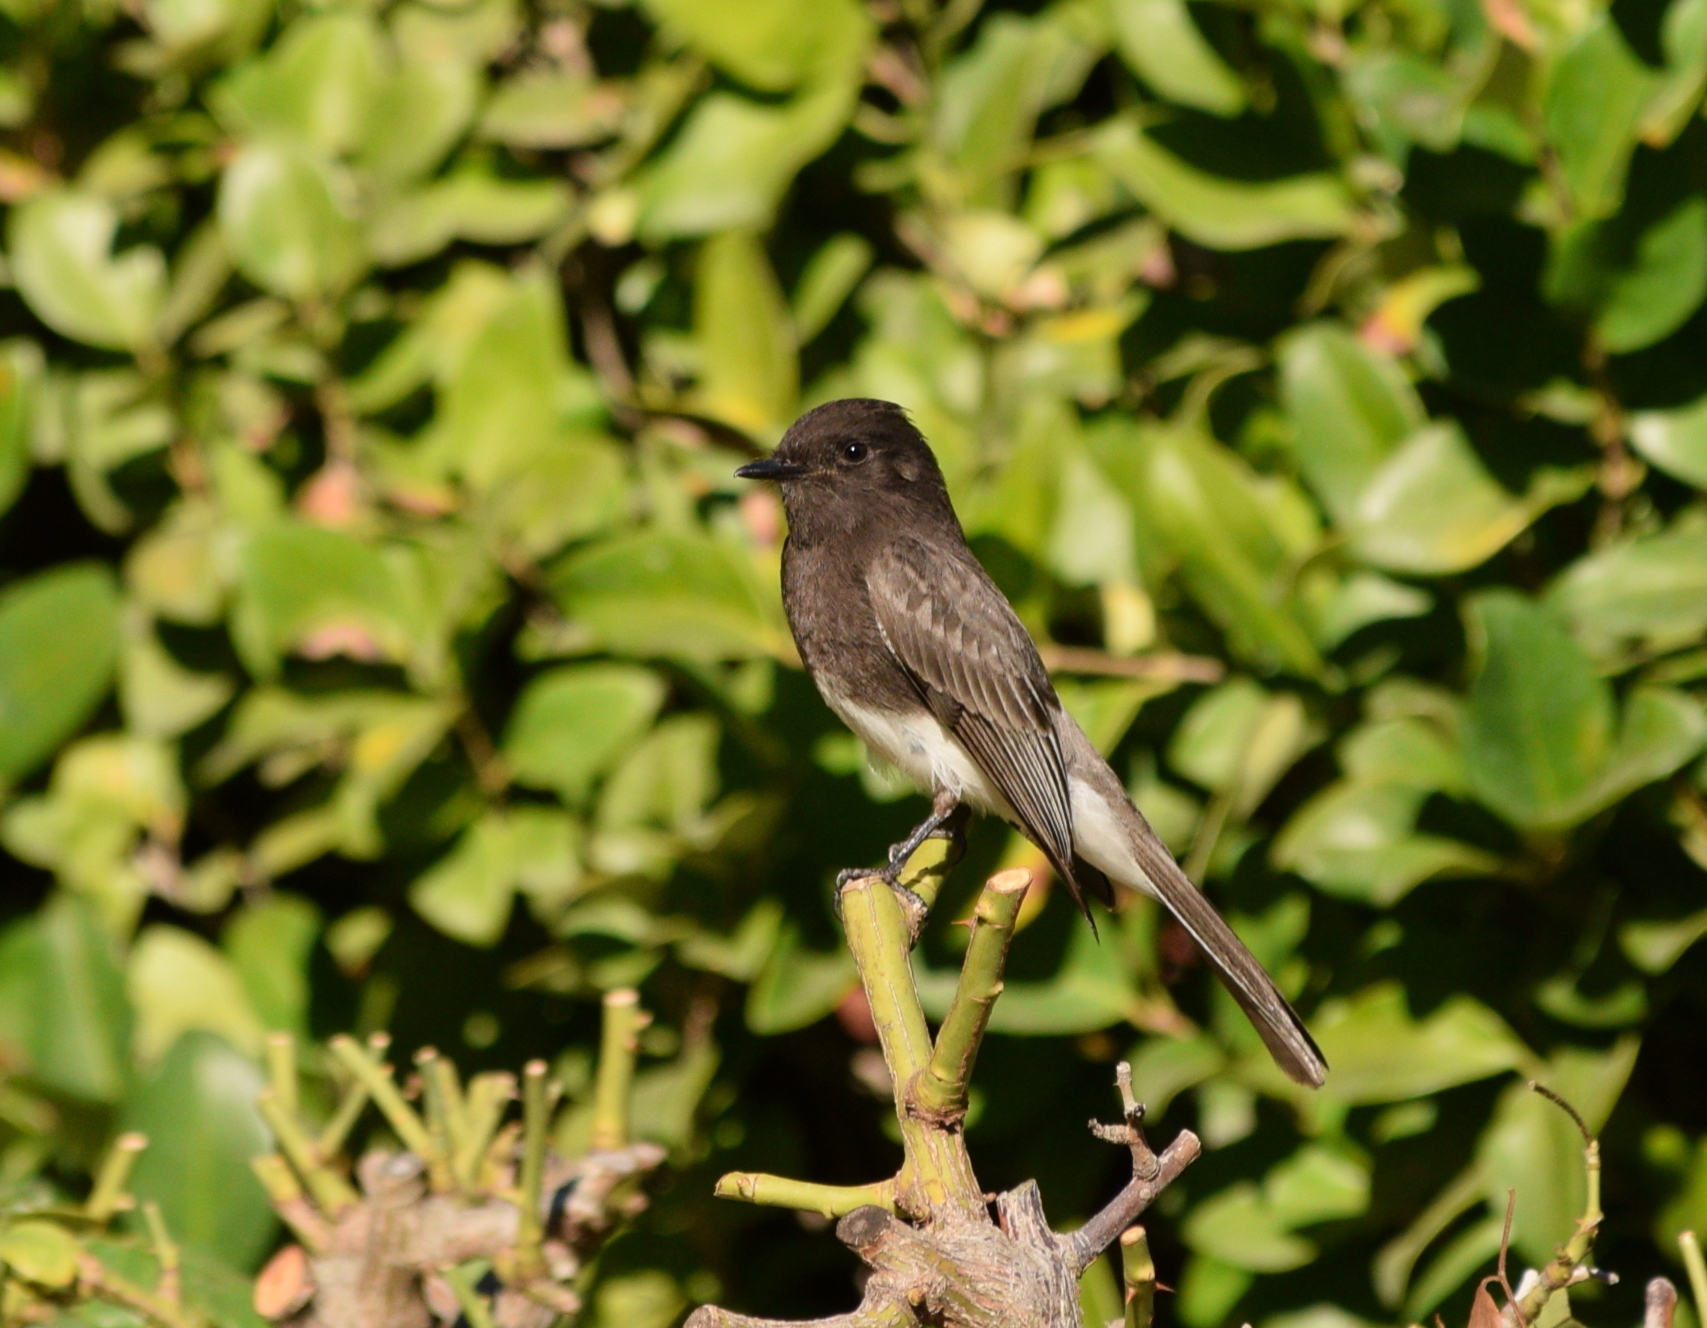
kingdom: Animalia
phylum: Chordata
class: Aves
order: Passeriformes
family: Tyrannidae
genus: Sayornis
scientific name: Sayornis nigricans
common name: Black phoebe
